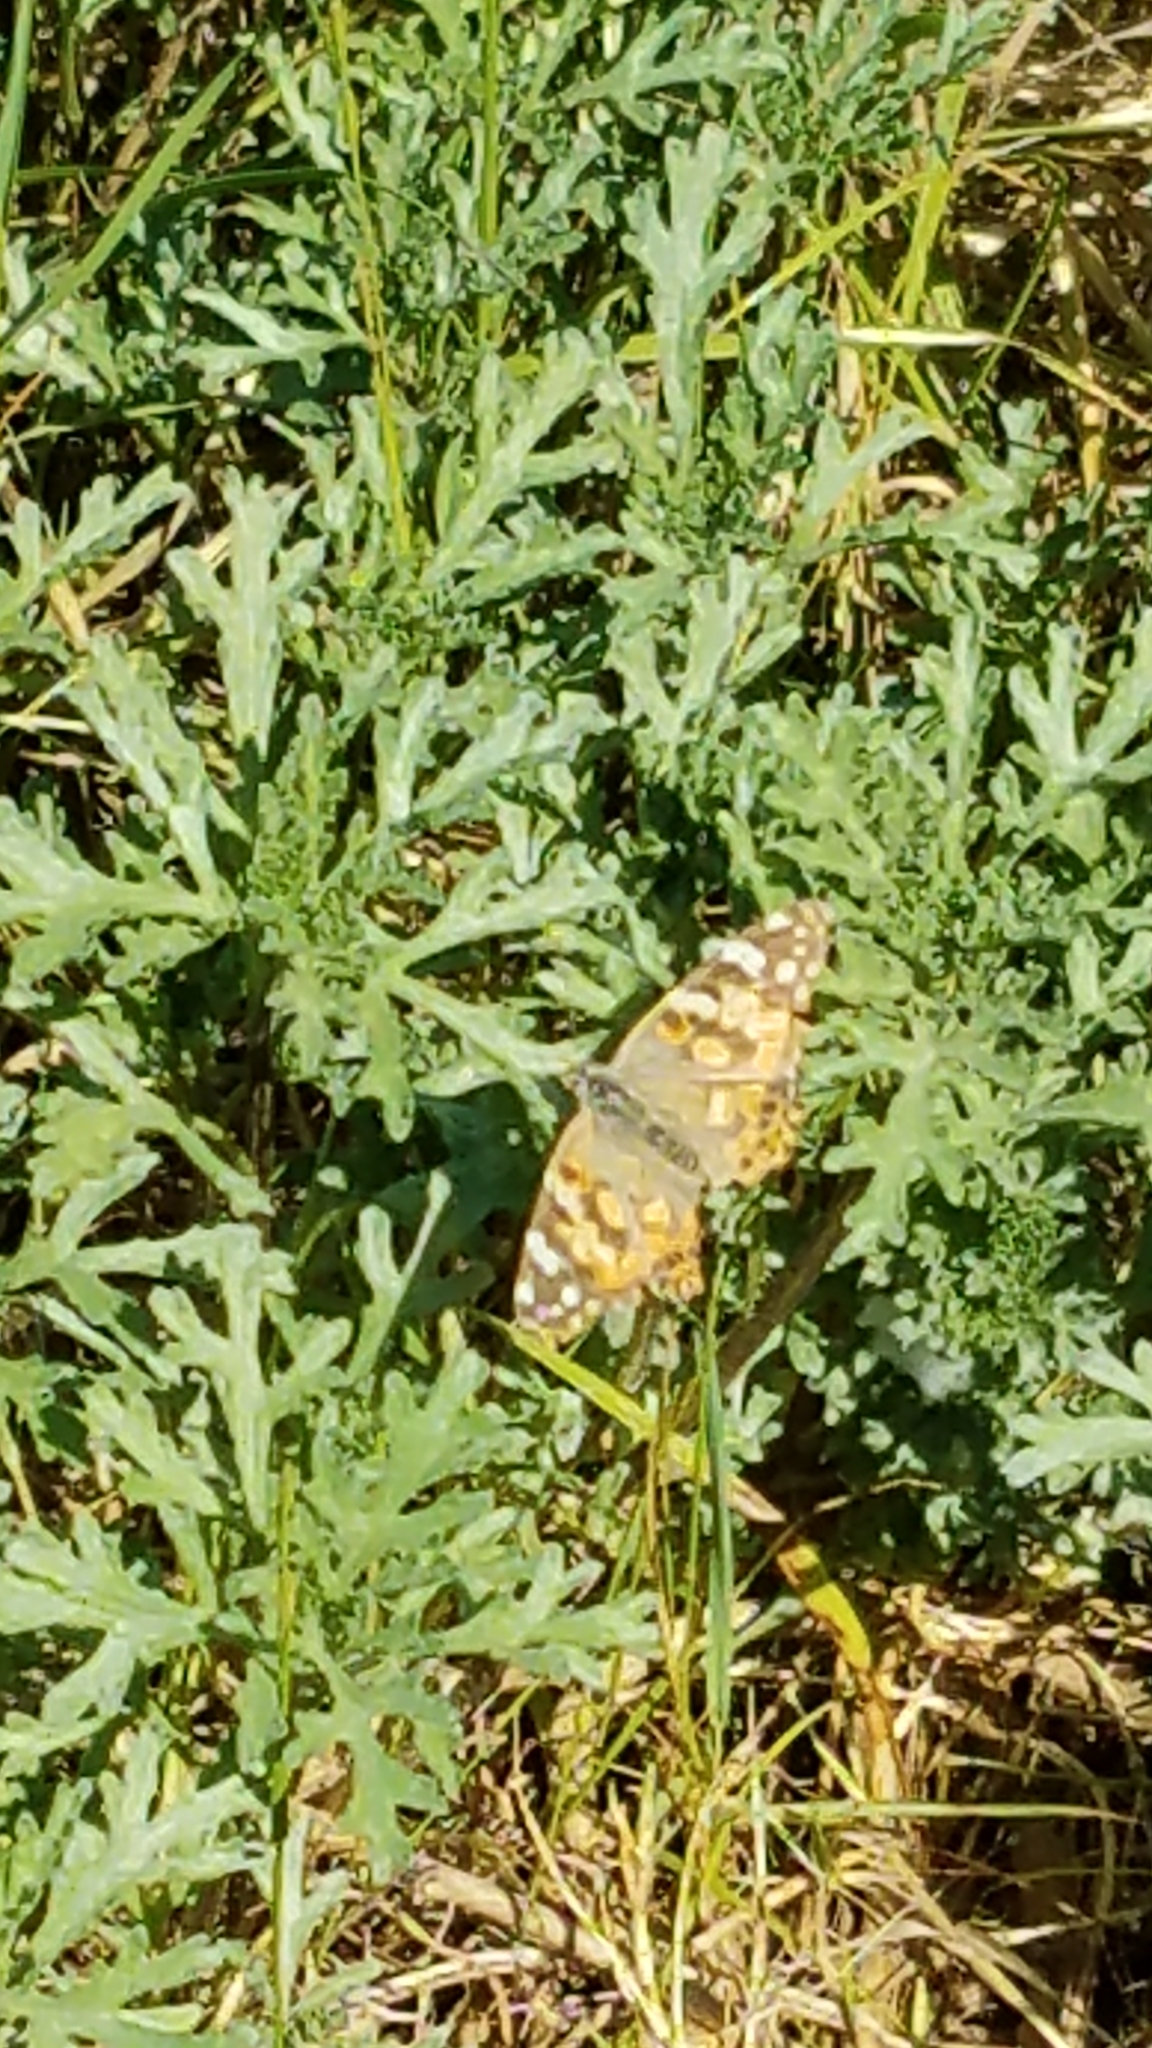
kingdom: Animalia
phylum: Arthropoda
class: Insecta
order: Lepidoptera
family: Nymphalidae
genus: Vanessa
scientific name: Vanessa cardui
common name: Painted lady
